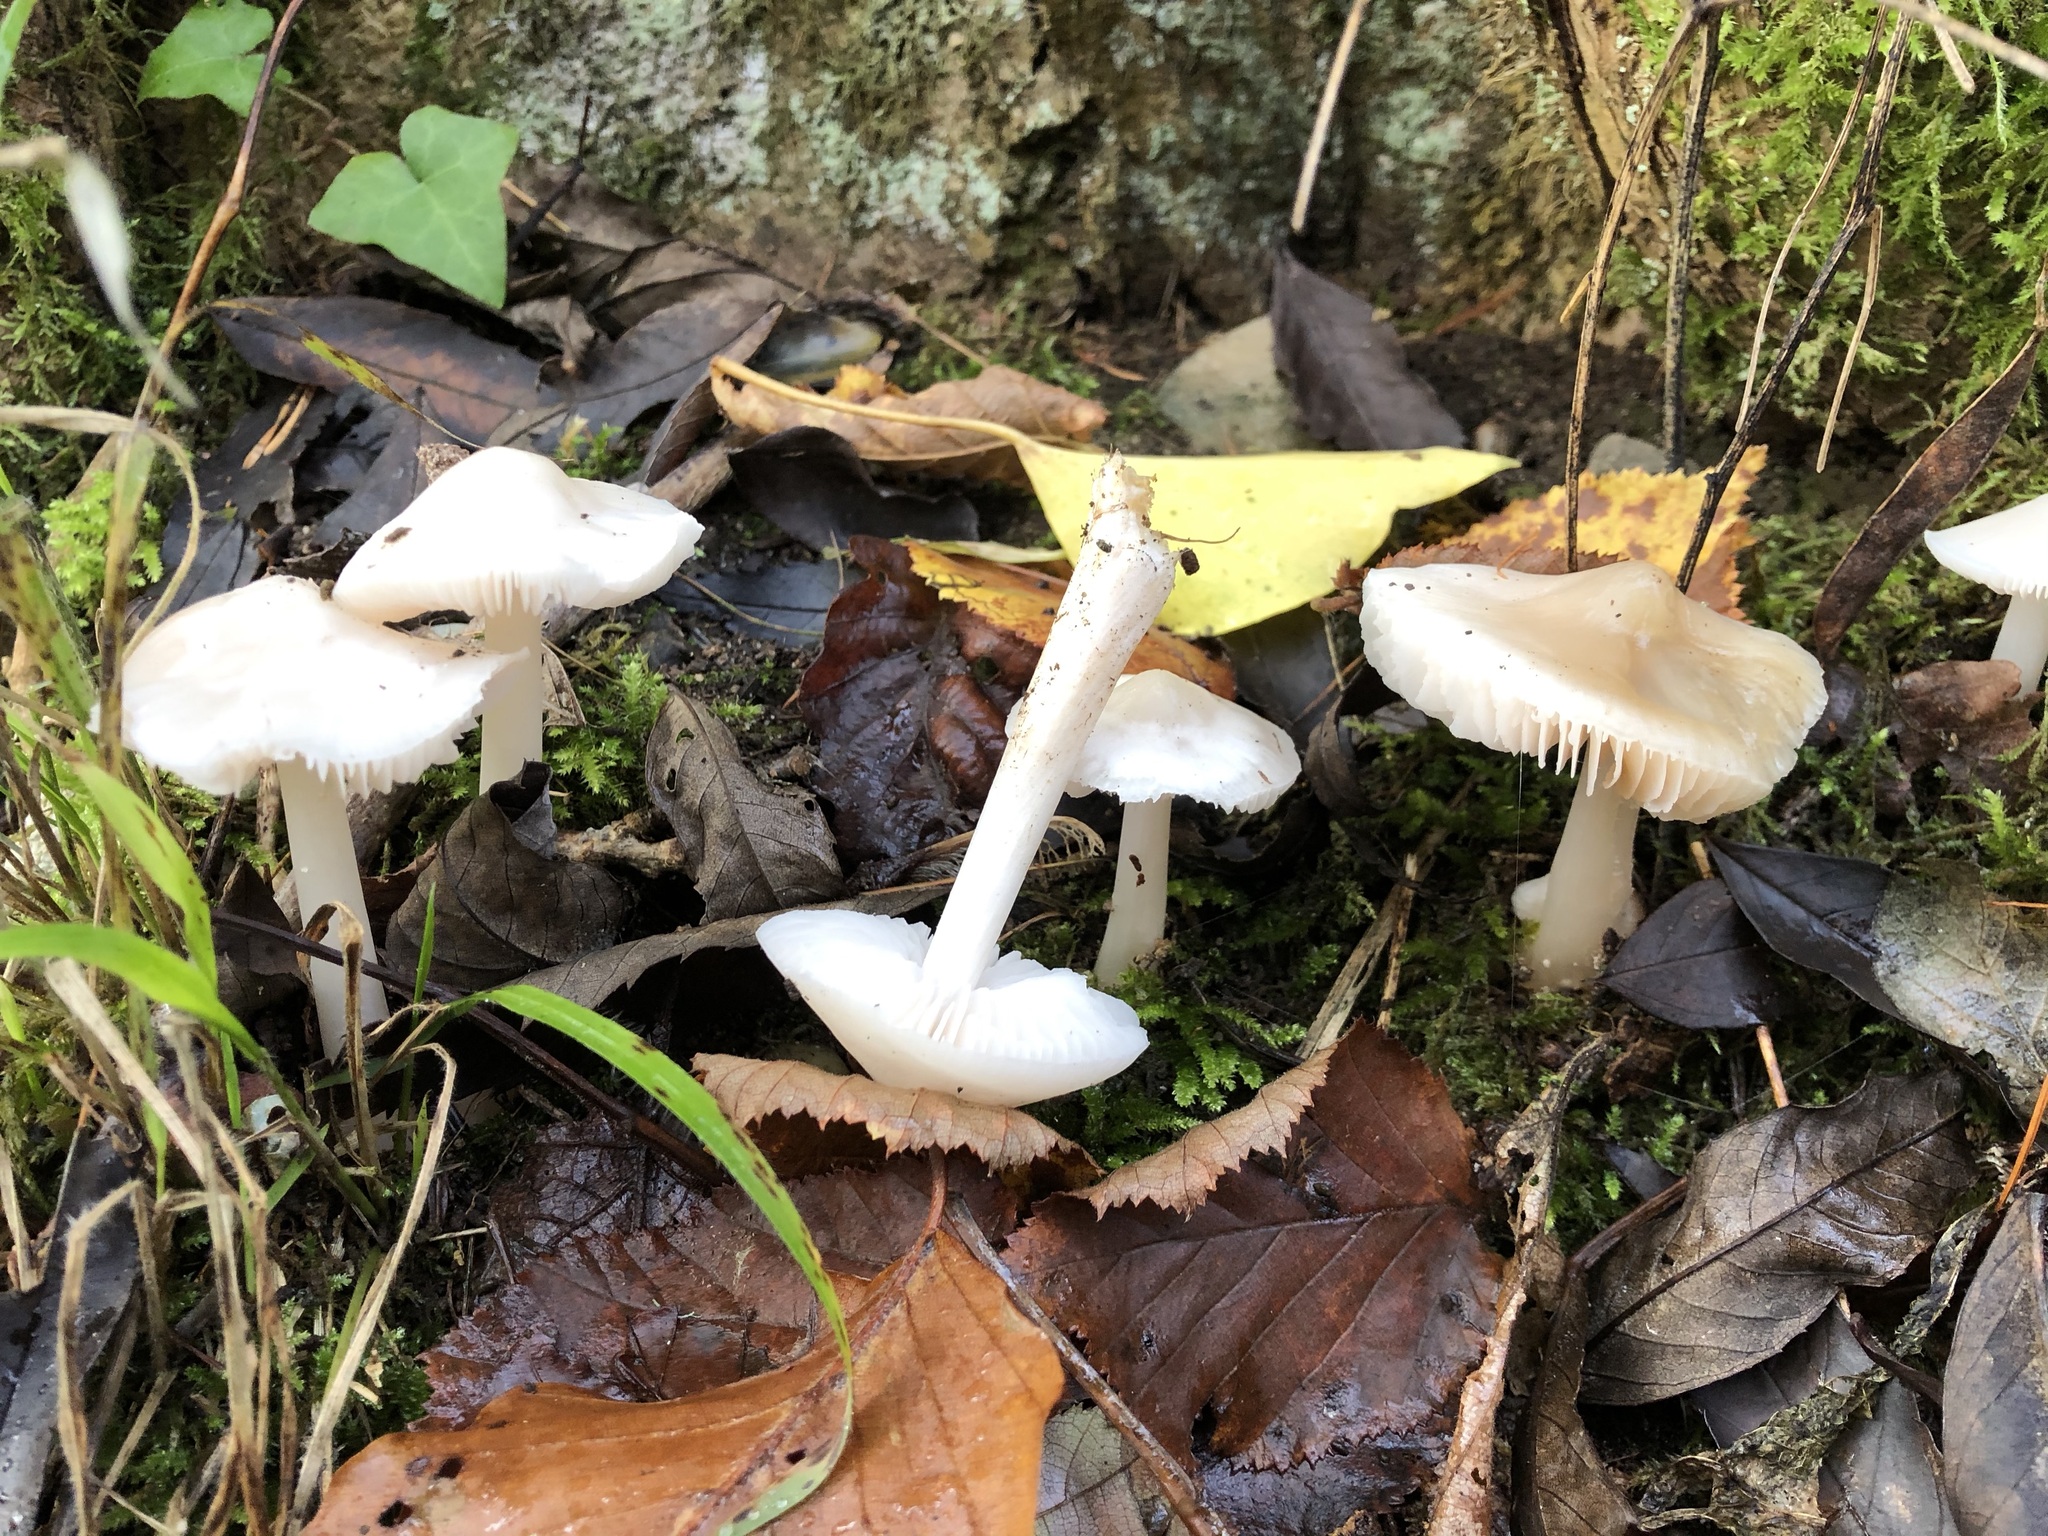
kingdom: Fungi
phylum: Basidiomycota
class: Agaricomycetes
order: Agaricales
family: Mycenaceae
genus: Mycena
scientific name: Mycena rosea
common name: Rosy bonnet
